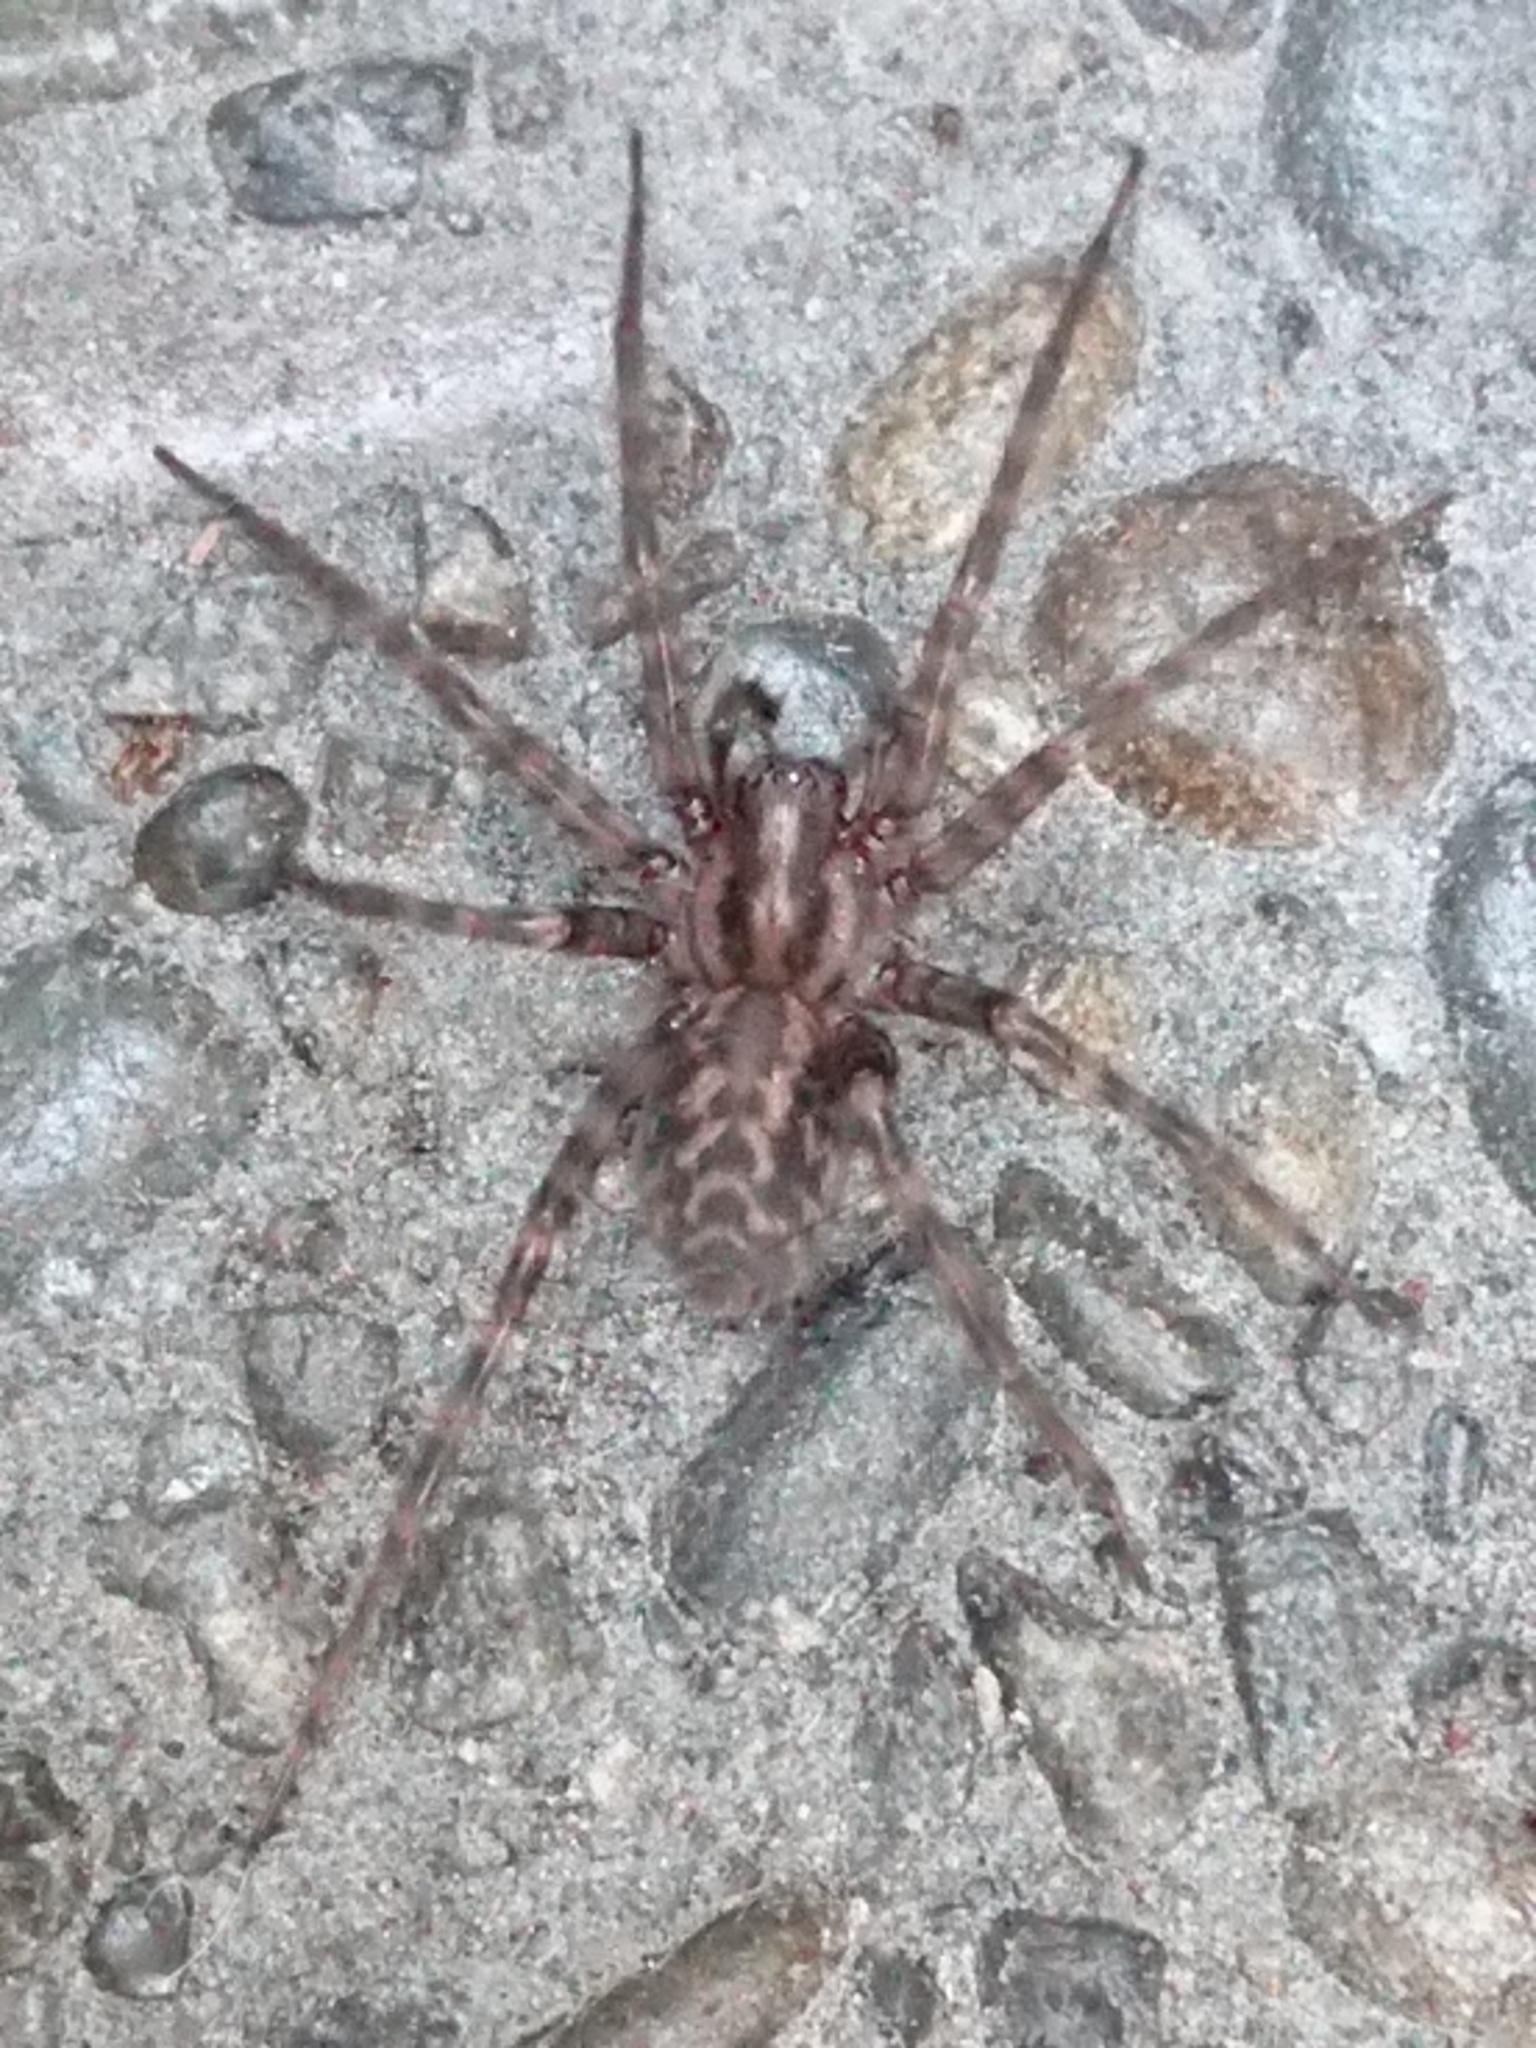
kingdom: Animalia
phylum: Arthropoda
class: Arachnida
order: Araneae
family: Agelenidae
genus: Tegenaria
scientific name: Tegenaria domestica
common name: Barn funnel weaver
